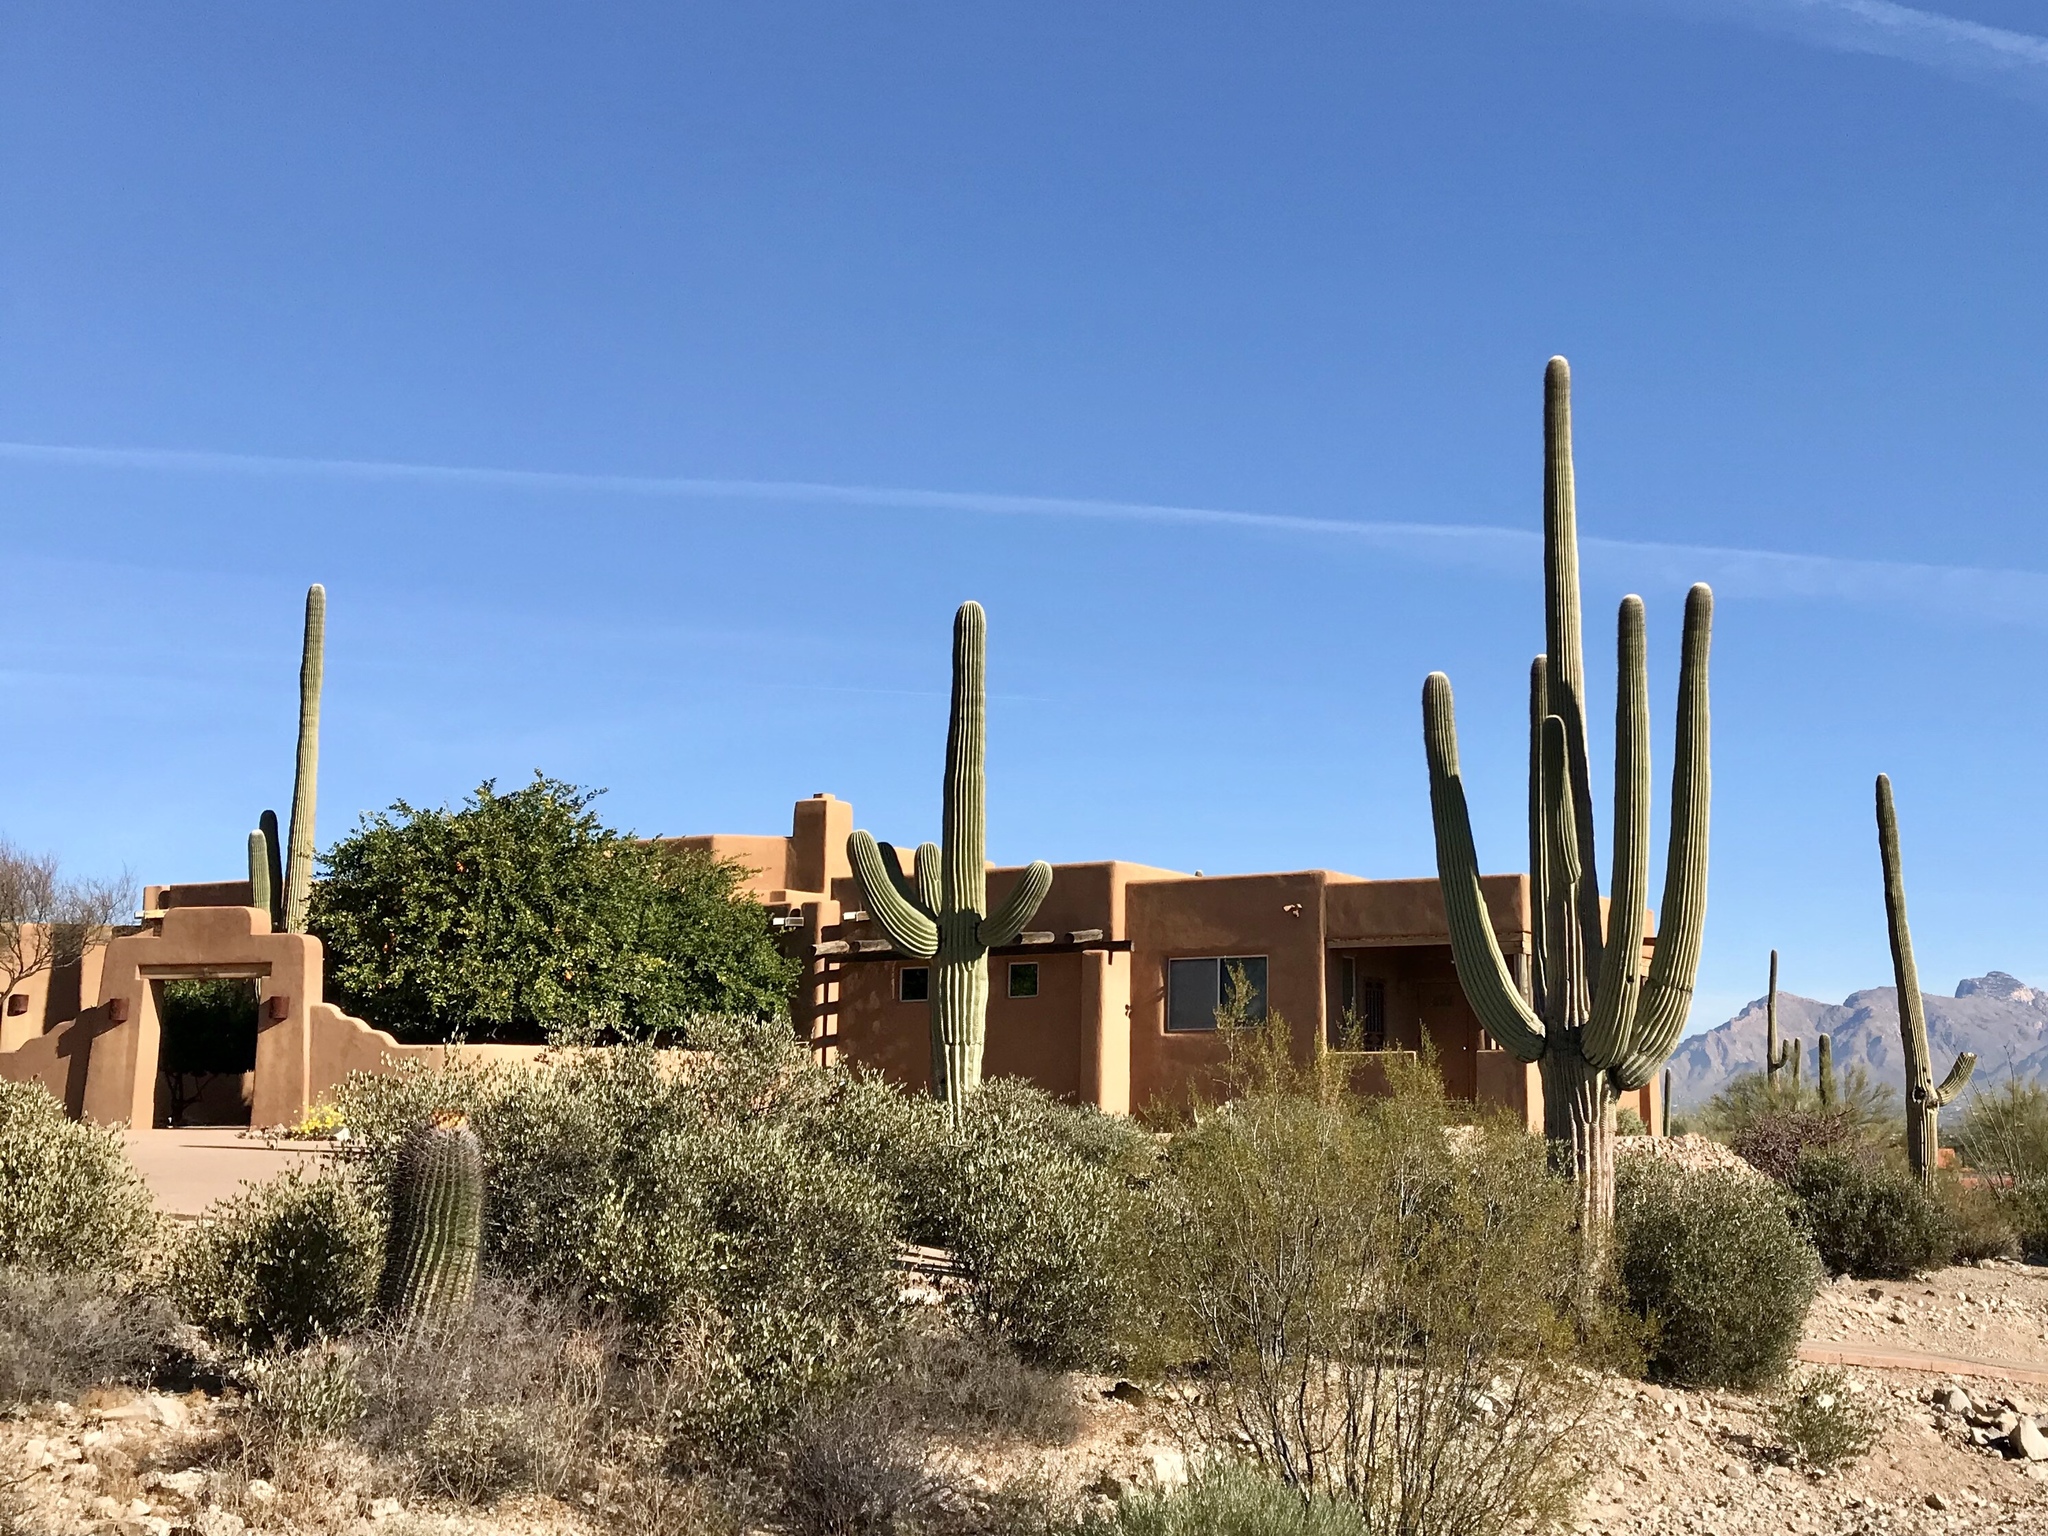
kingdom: Plantae
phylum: Tracheophyta
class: Magnoliopsida
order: Caryophyllales
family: Cactaceae
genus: Carnegiea
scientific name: Carnegiea gigantea
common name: Saguaro
